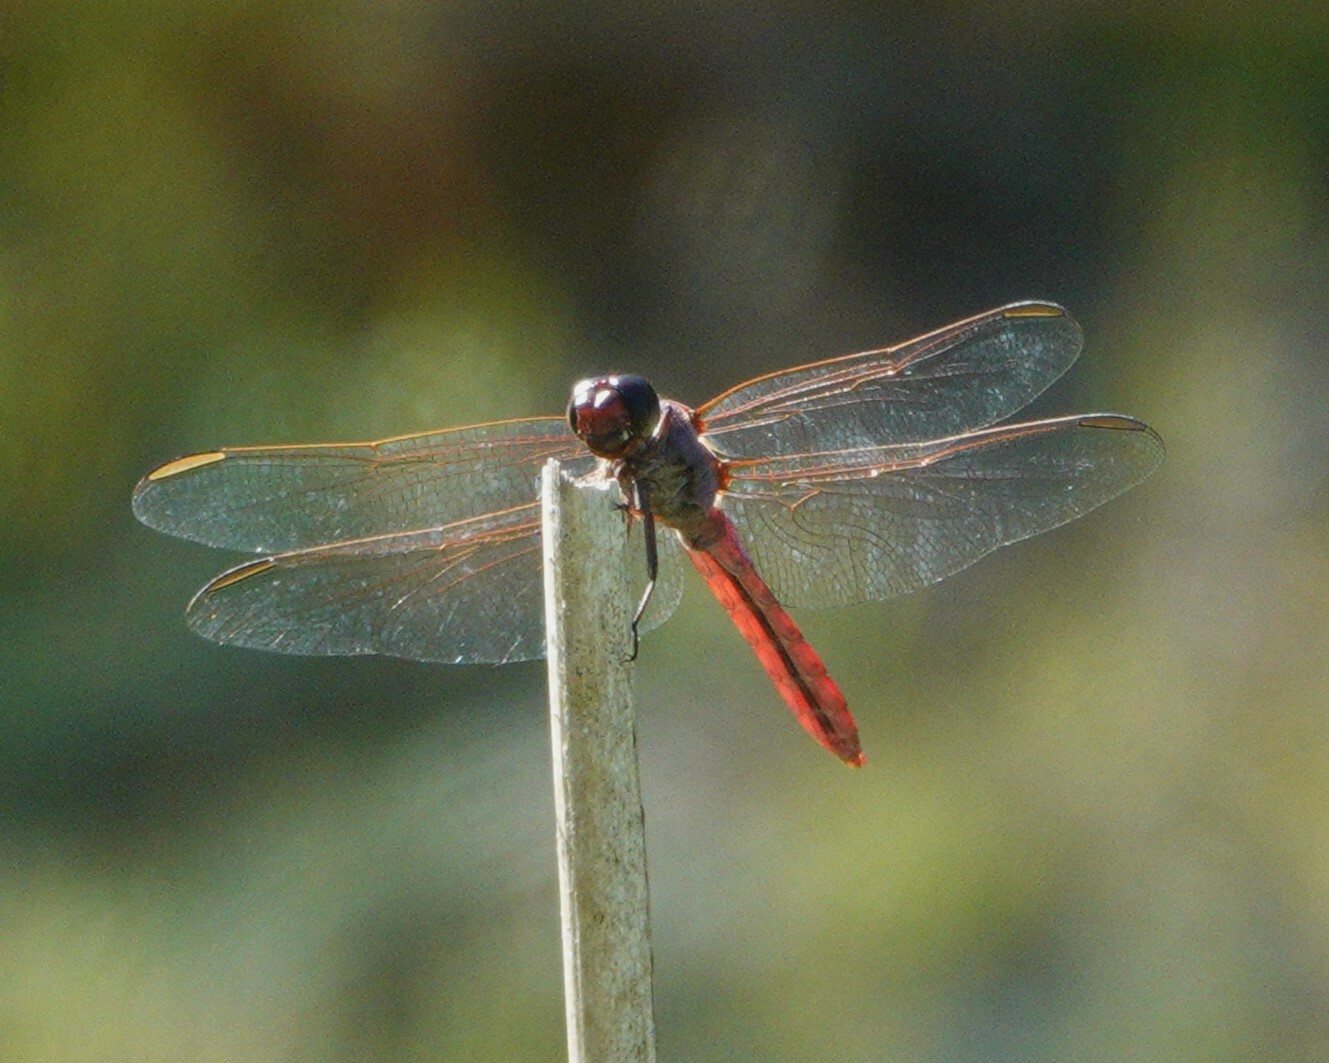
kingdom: Animalia
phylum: Arthropoda
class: Insecta
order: Odonata
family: Libellulidae
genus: Orthemis
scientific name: Orthemis ferruginea
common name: Roseate skimmer
